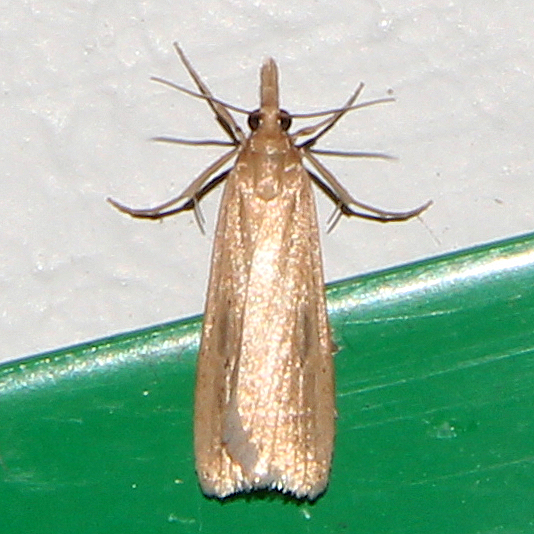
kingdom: Animalia
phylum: Arthropoda
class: Insecta
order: Lepidoptera
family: Crambidae
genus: Eudonia
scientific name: Eudonia sabulosella
